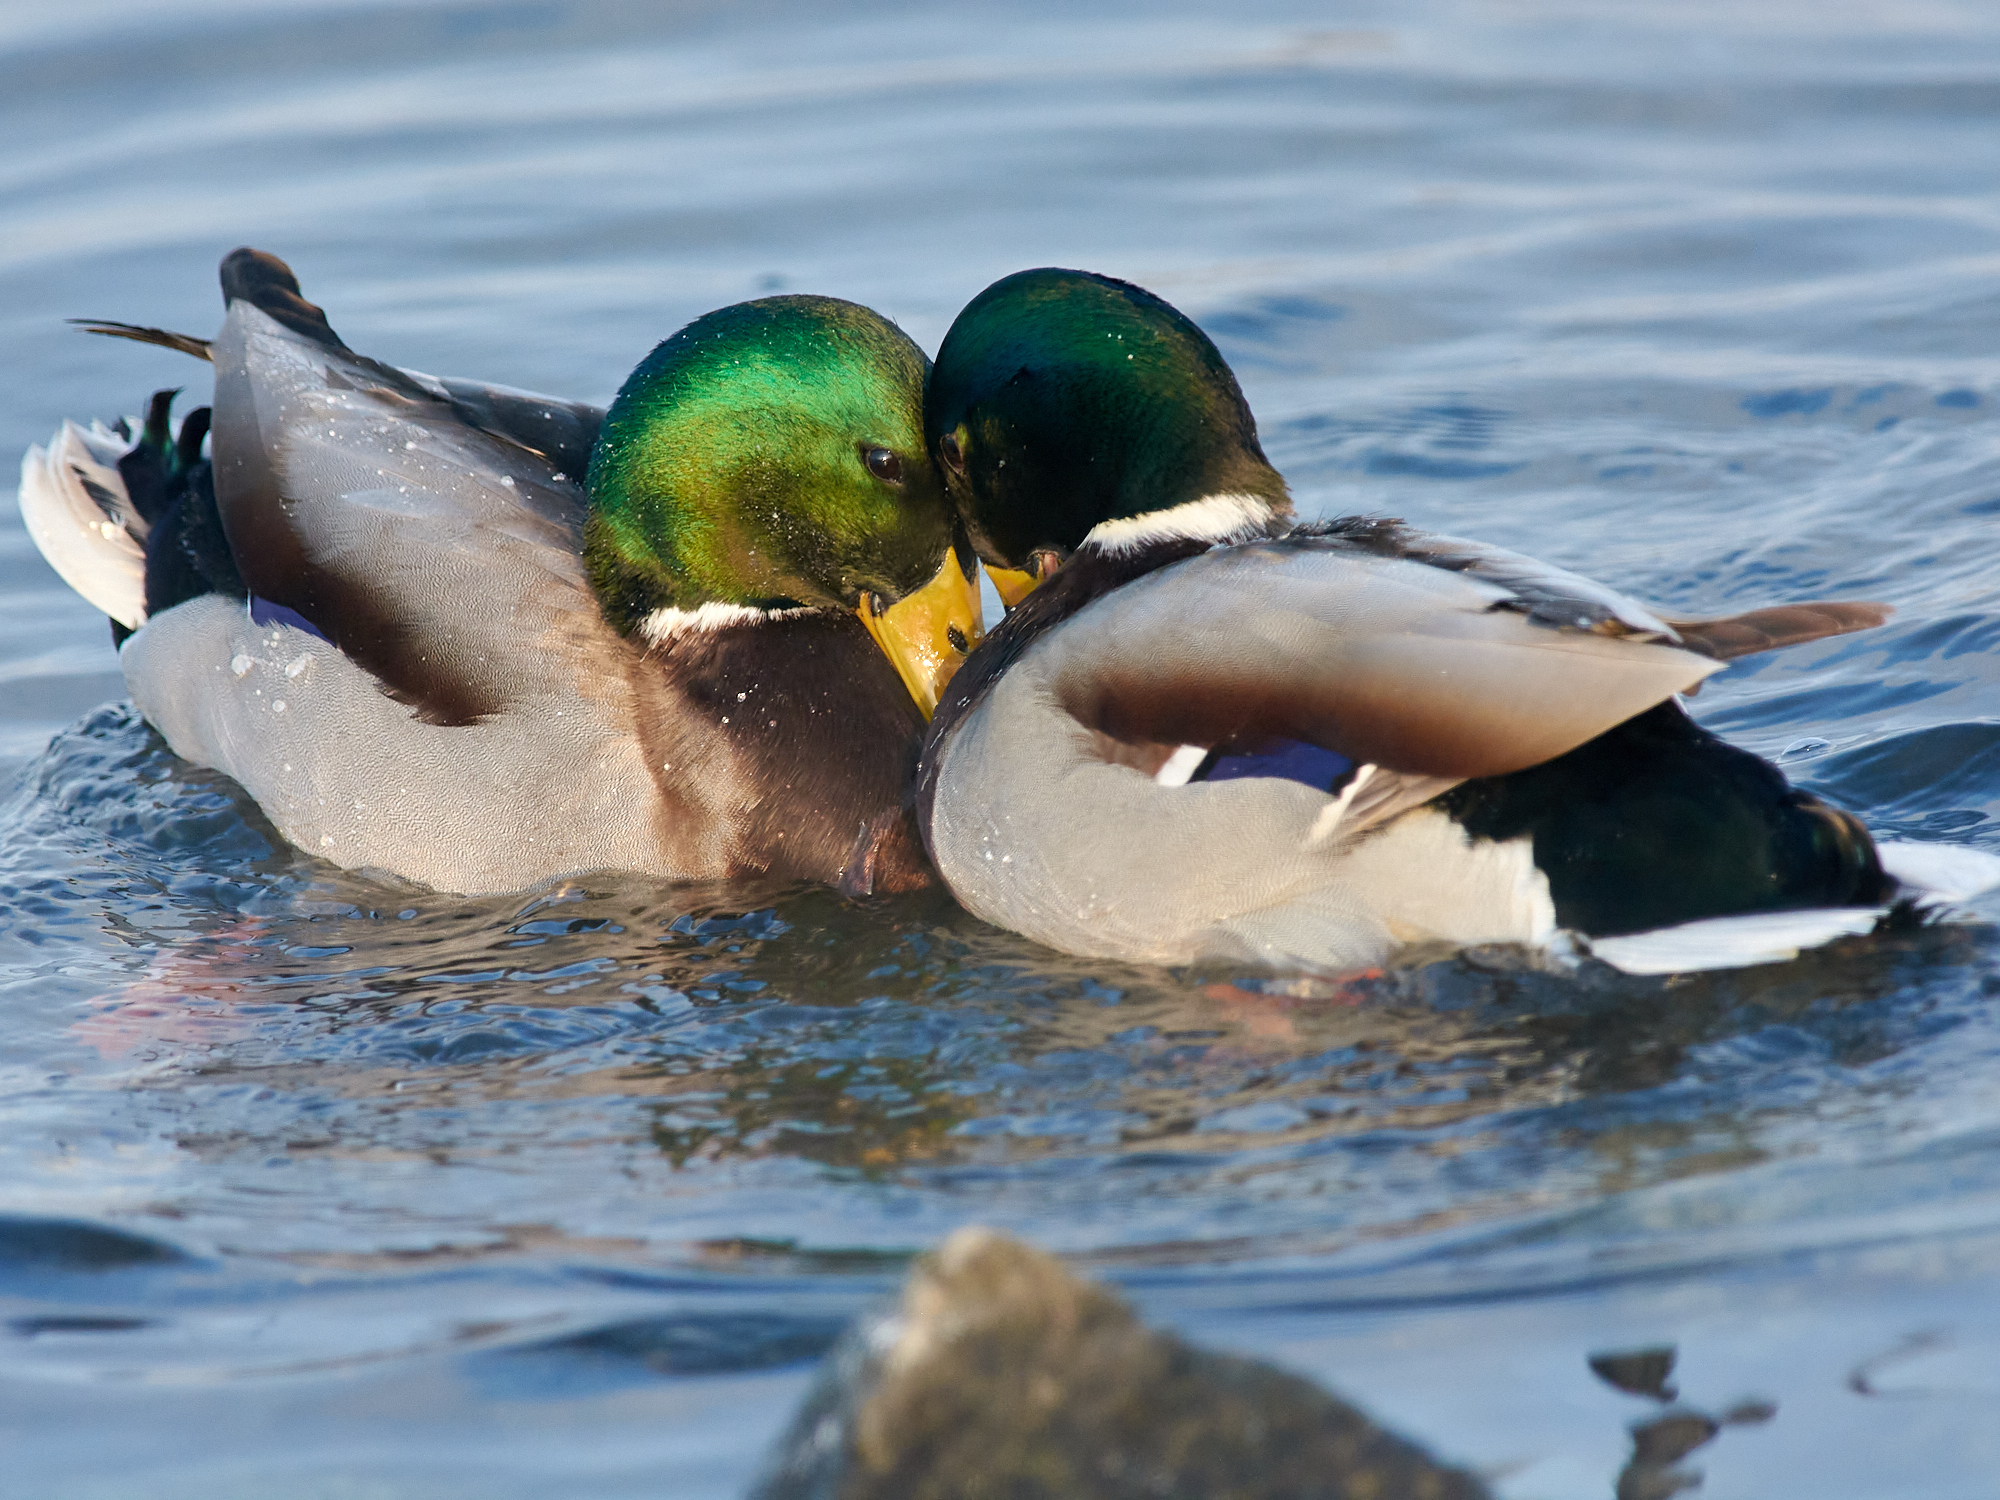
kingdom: Animalia
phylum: Chordata
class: Aves
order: Anseriformes
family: Anatidae
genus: Anas
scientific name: Anas platyrhynchos
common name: Mallard
